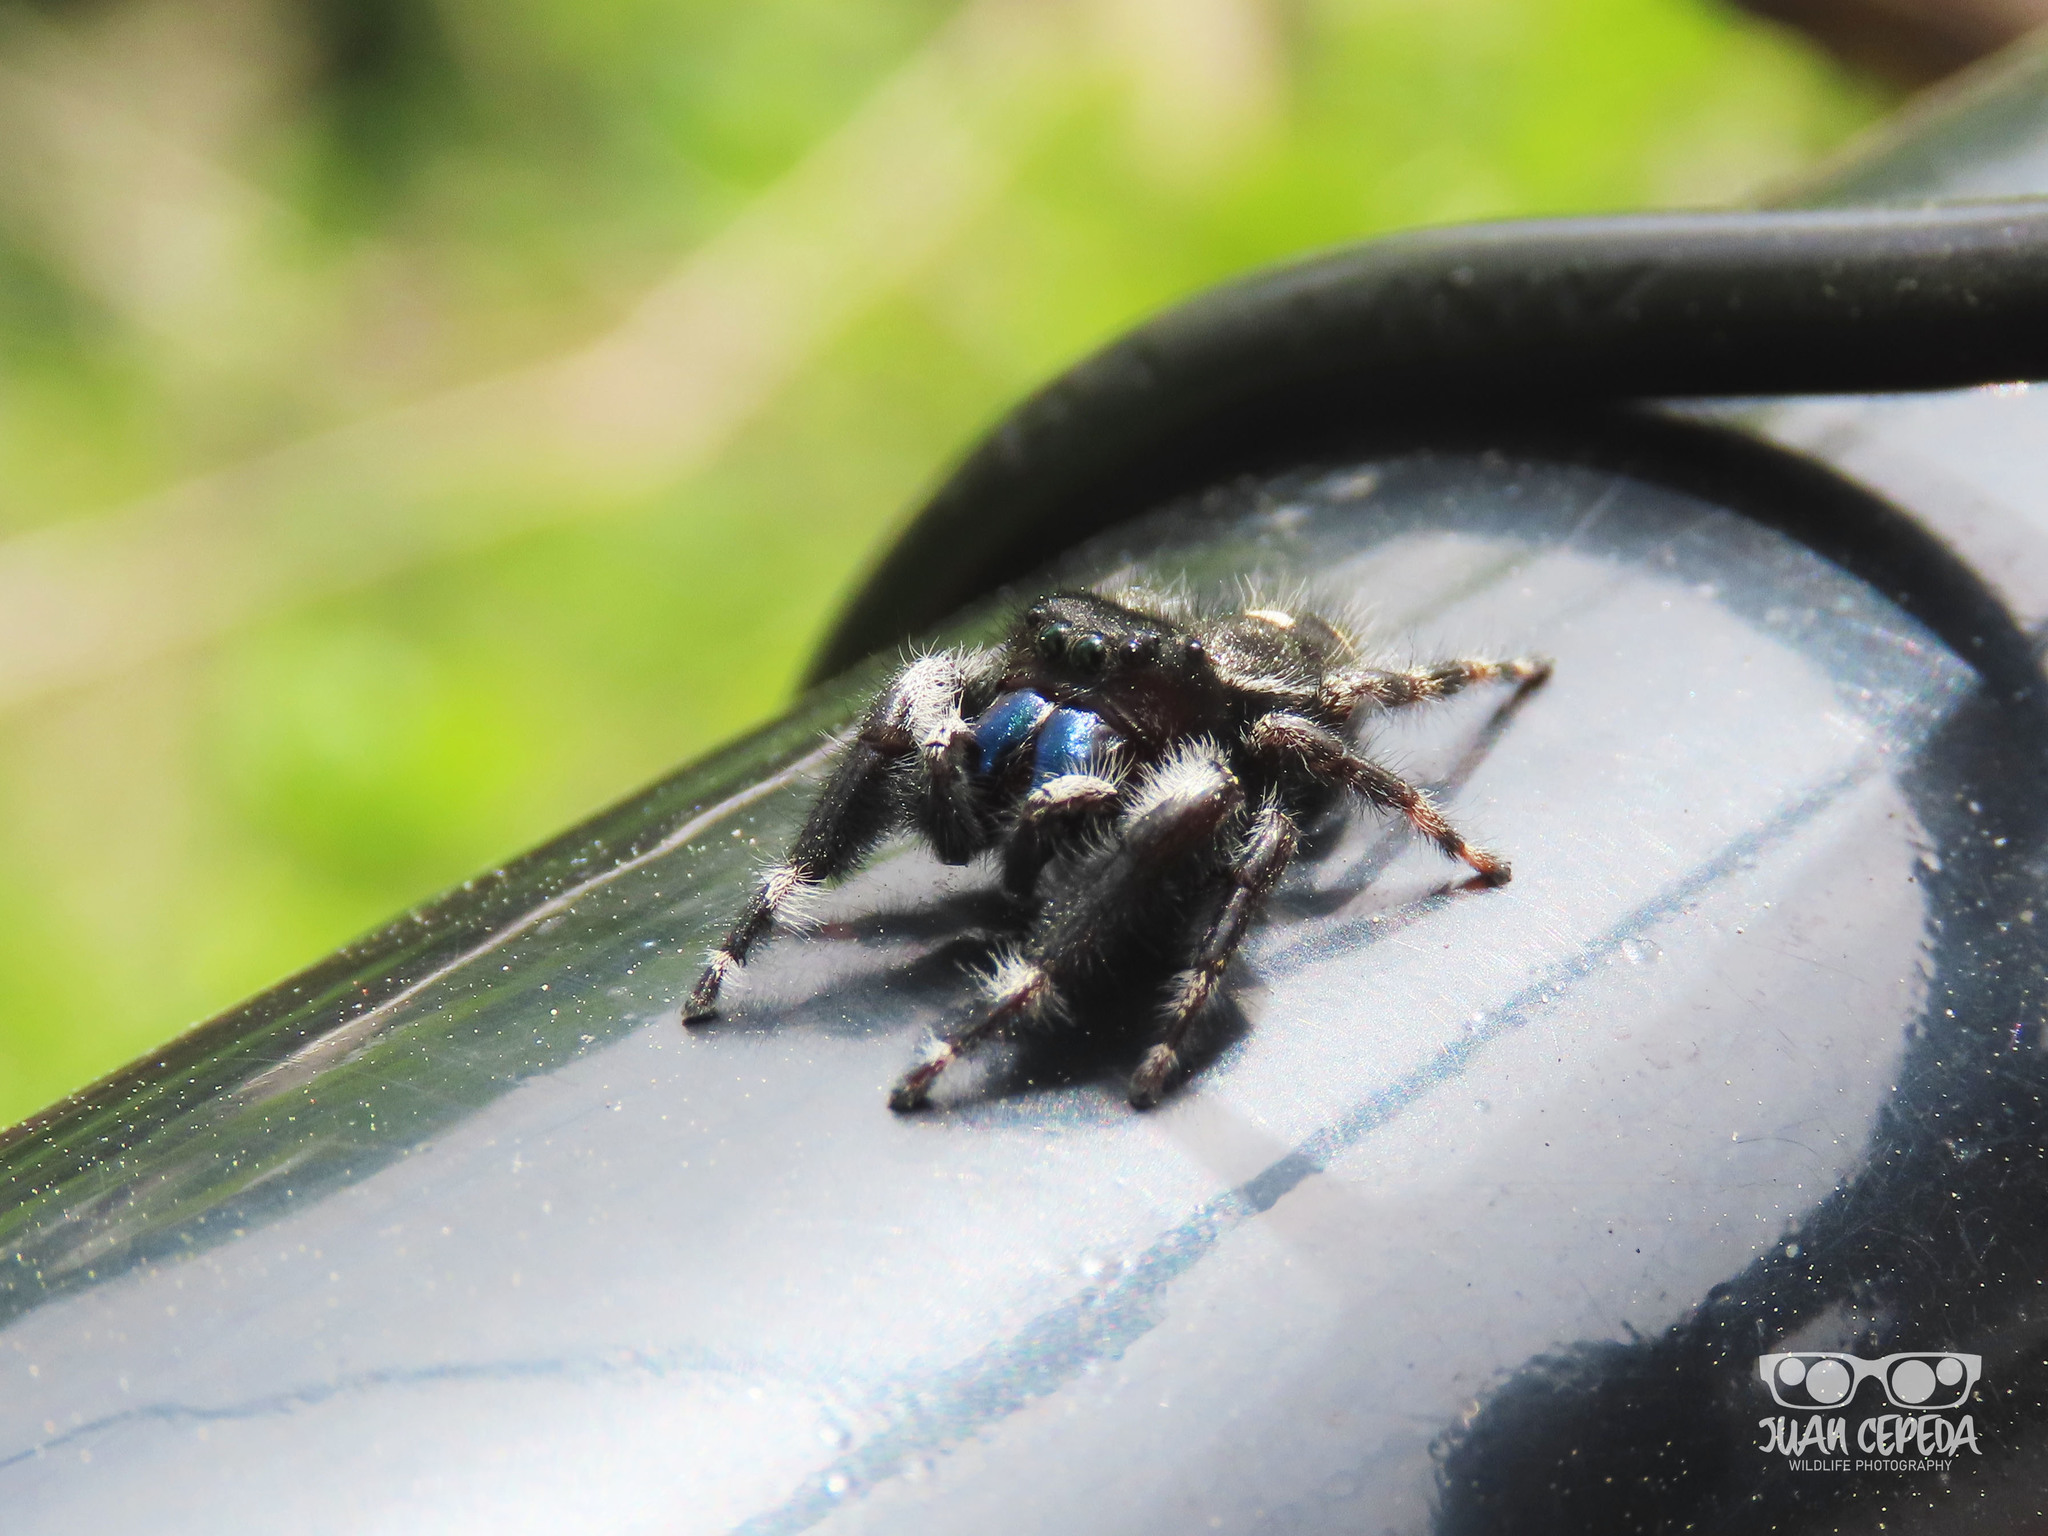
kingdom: Animalia
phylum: Arthropoda
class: Arachnida
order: Araneae
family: Salticidae
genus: Phidippus
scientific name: Phidippus audax
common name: Bold jumper
